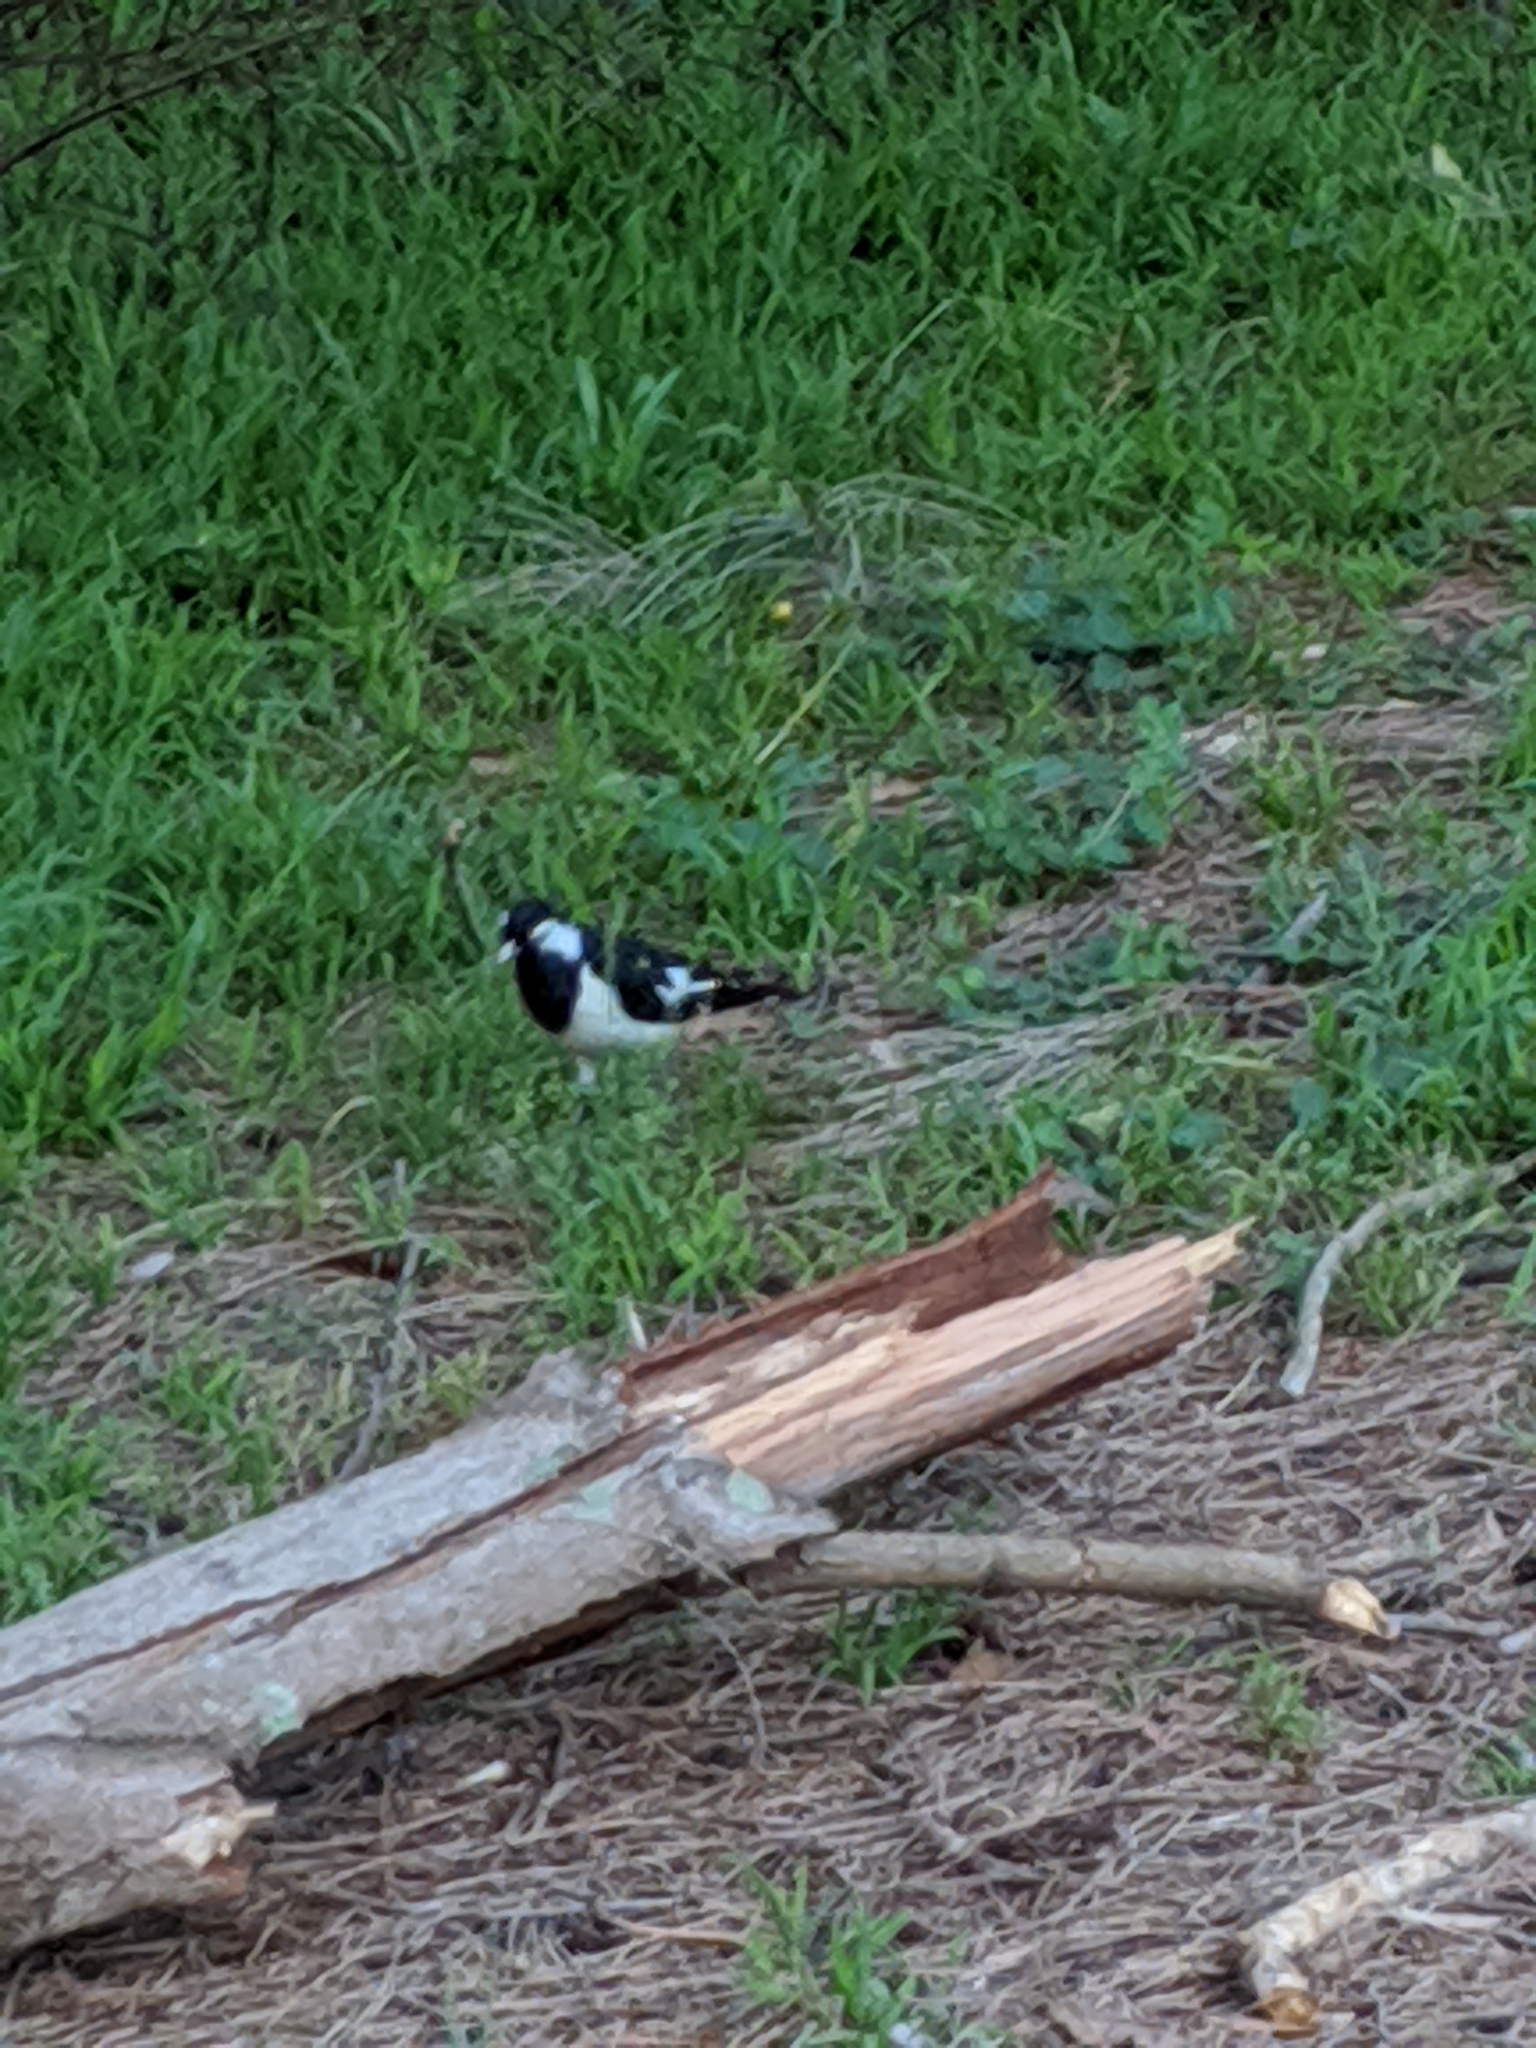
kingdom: Animalia
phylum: Chordata
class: Aves
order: Passeriformes
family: Monarchidae
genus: Grallina
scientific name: Grallina cyanoleuca
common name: Magpie-lark
